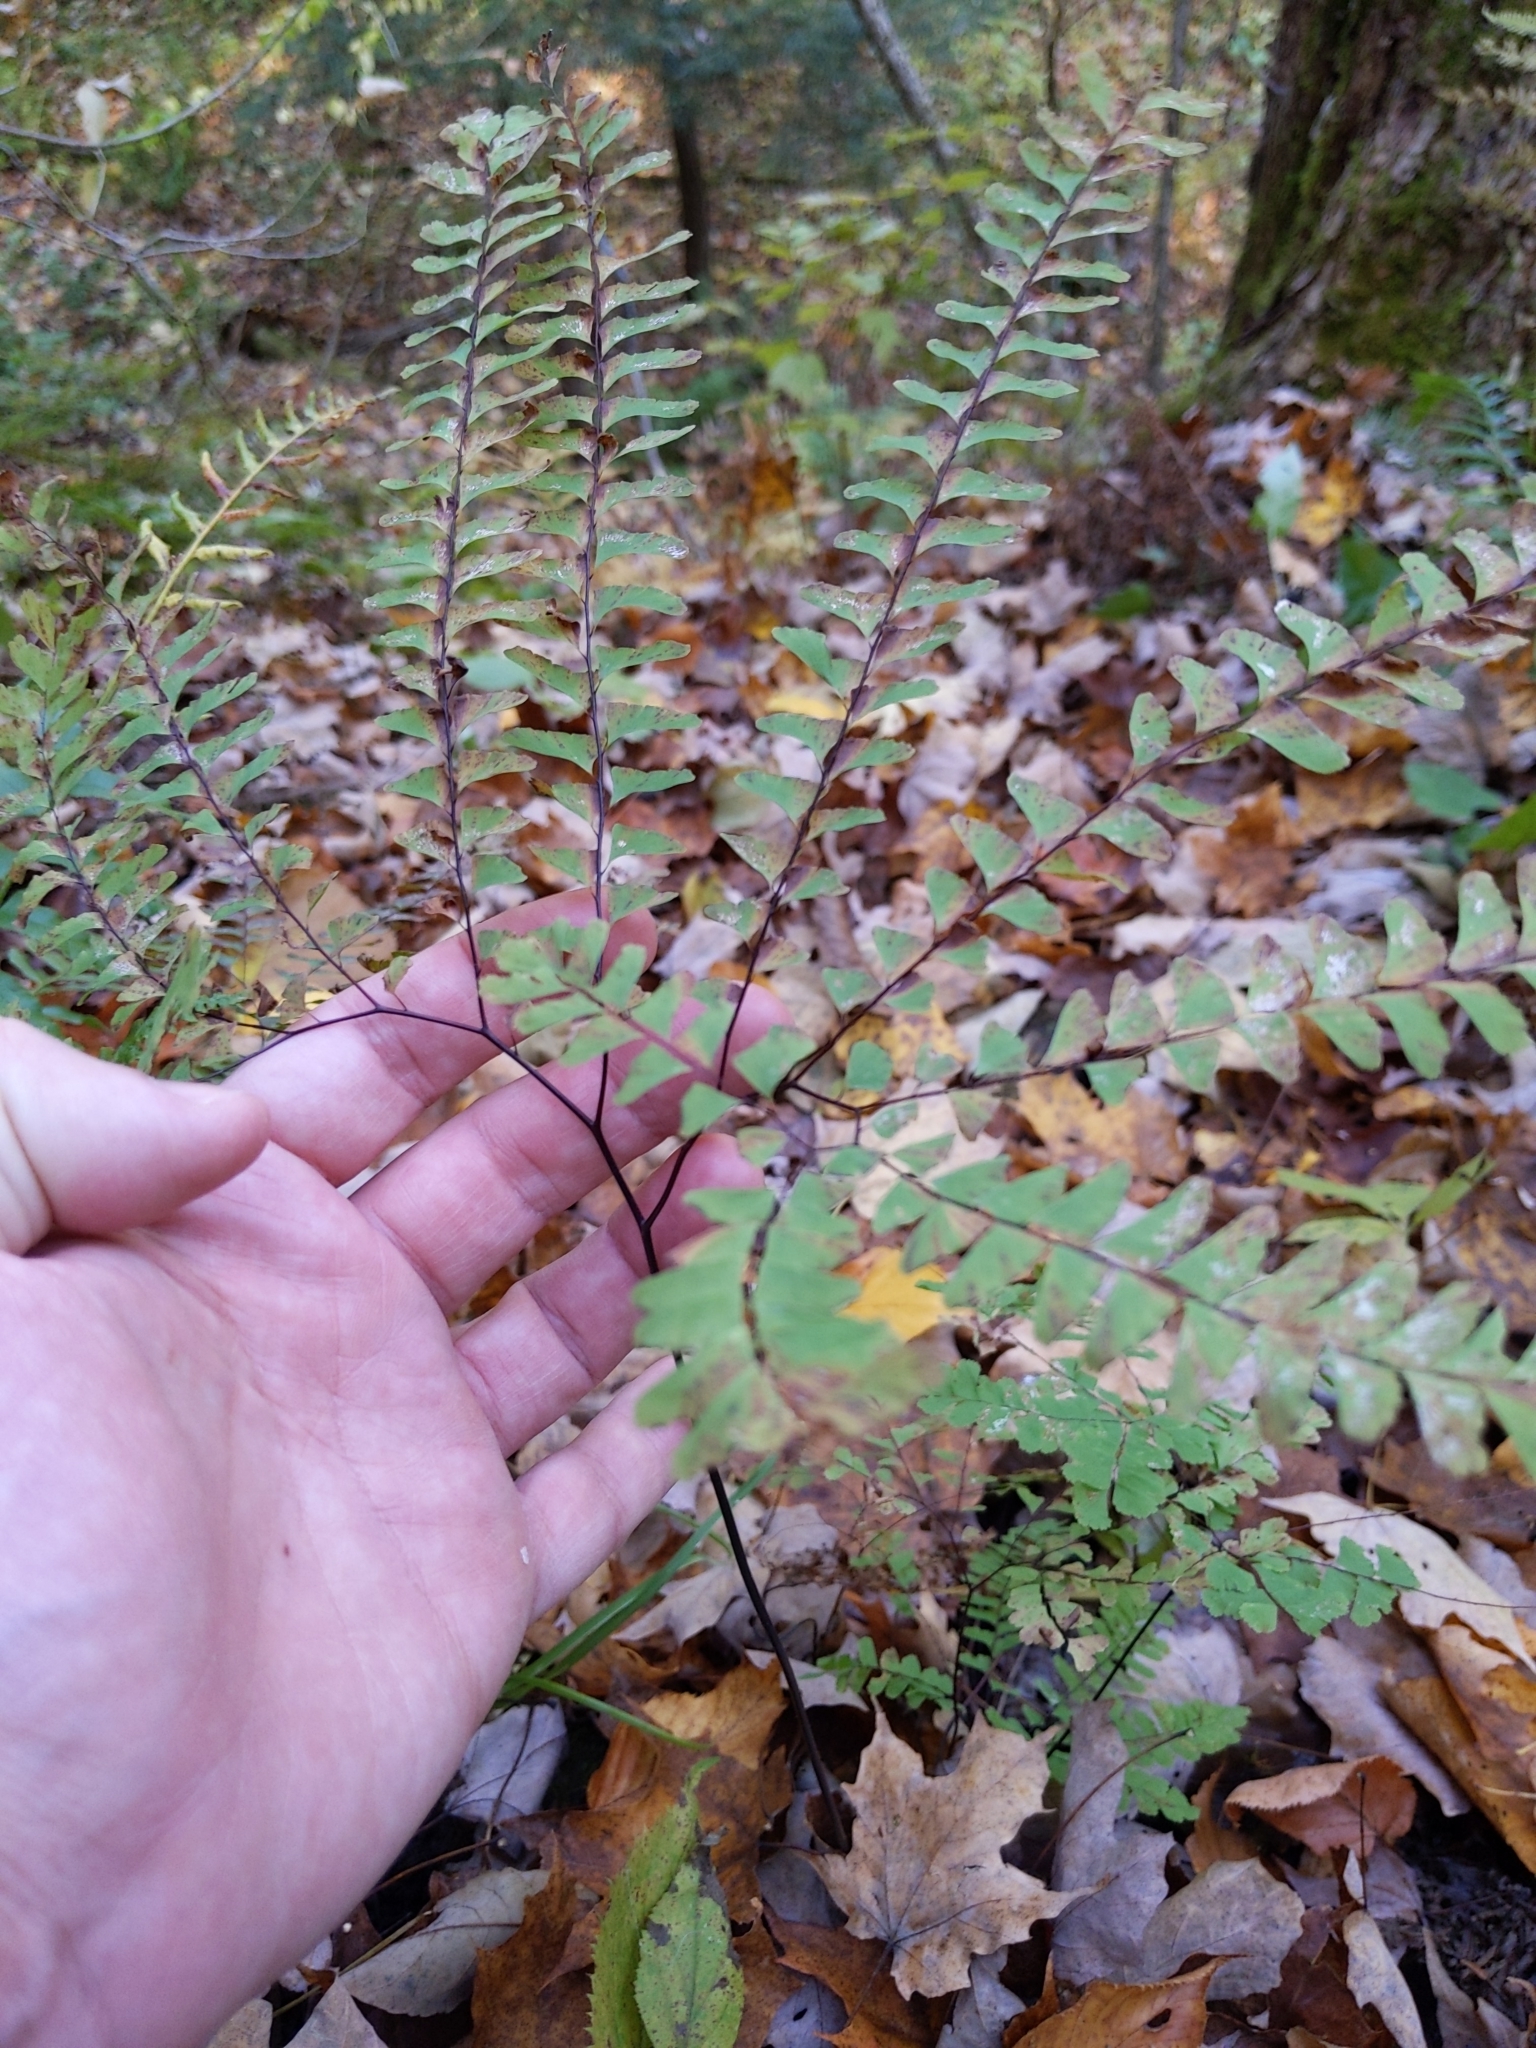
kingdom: Plantae
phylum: Tracheophyta
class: Polypodiopsida
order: Polypodiales
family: Pteridaceae
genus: Adiantum
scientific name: Adiantum pedatum
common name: Five-finger fern
